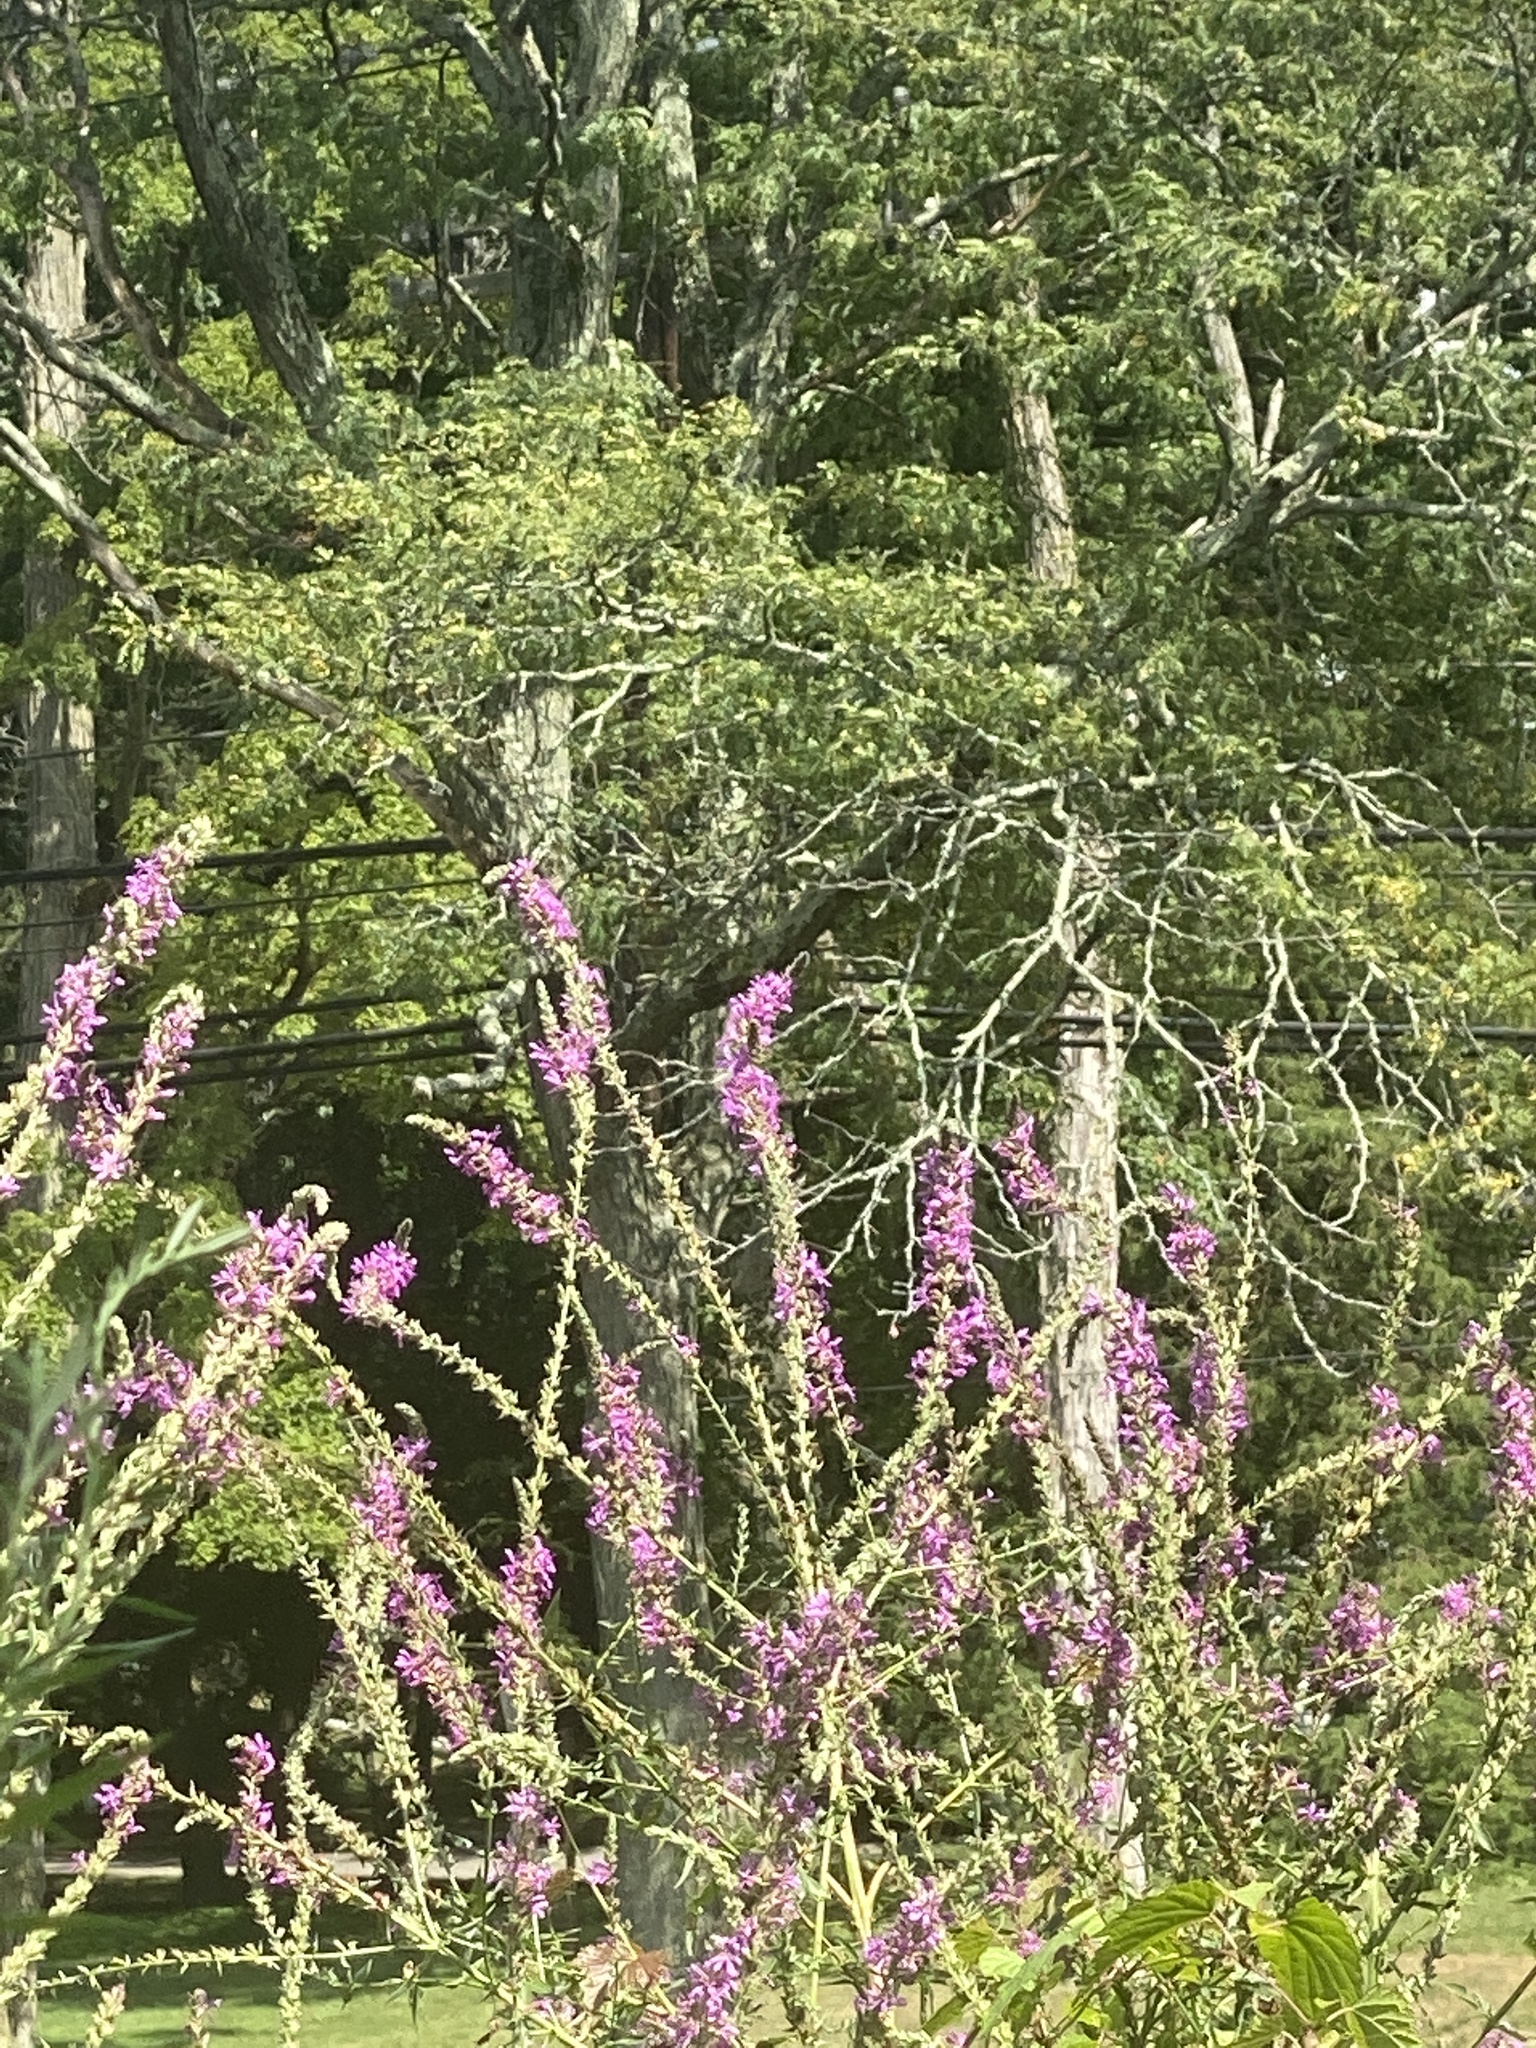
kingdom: Plantae
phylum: Tracheophyta
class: Magnoliopsida
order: Myrtales
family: Lythraceae
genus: Lythrum
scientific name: Lythrum salicaria
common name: Purple loosestrife
